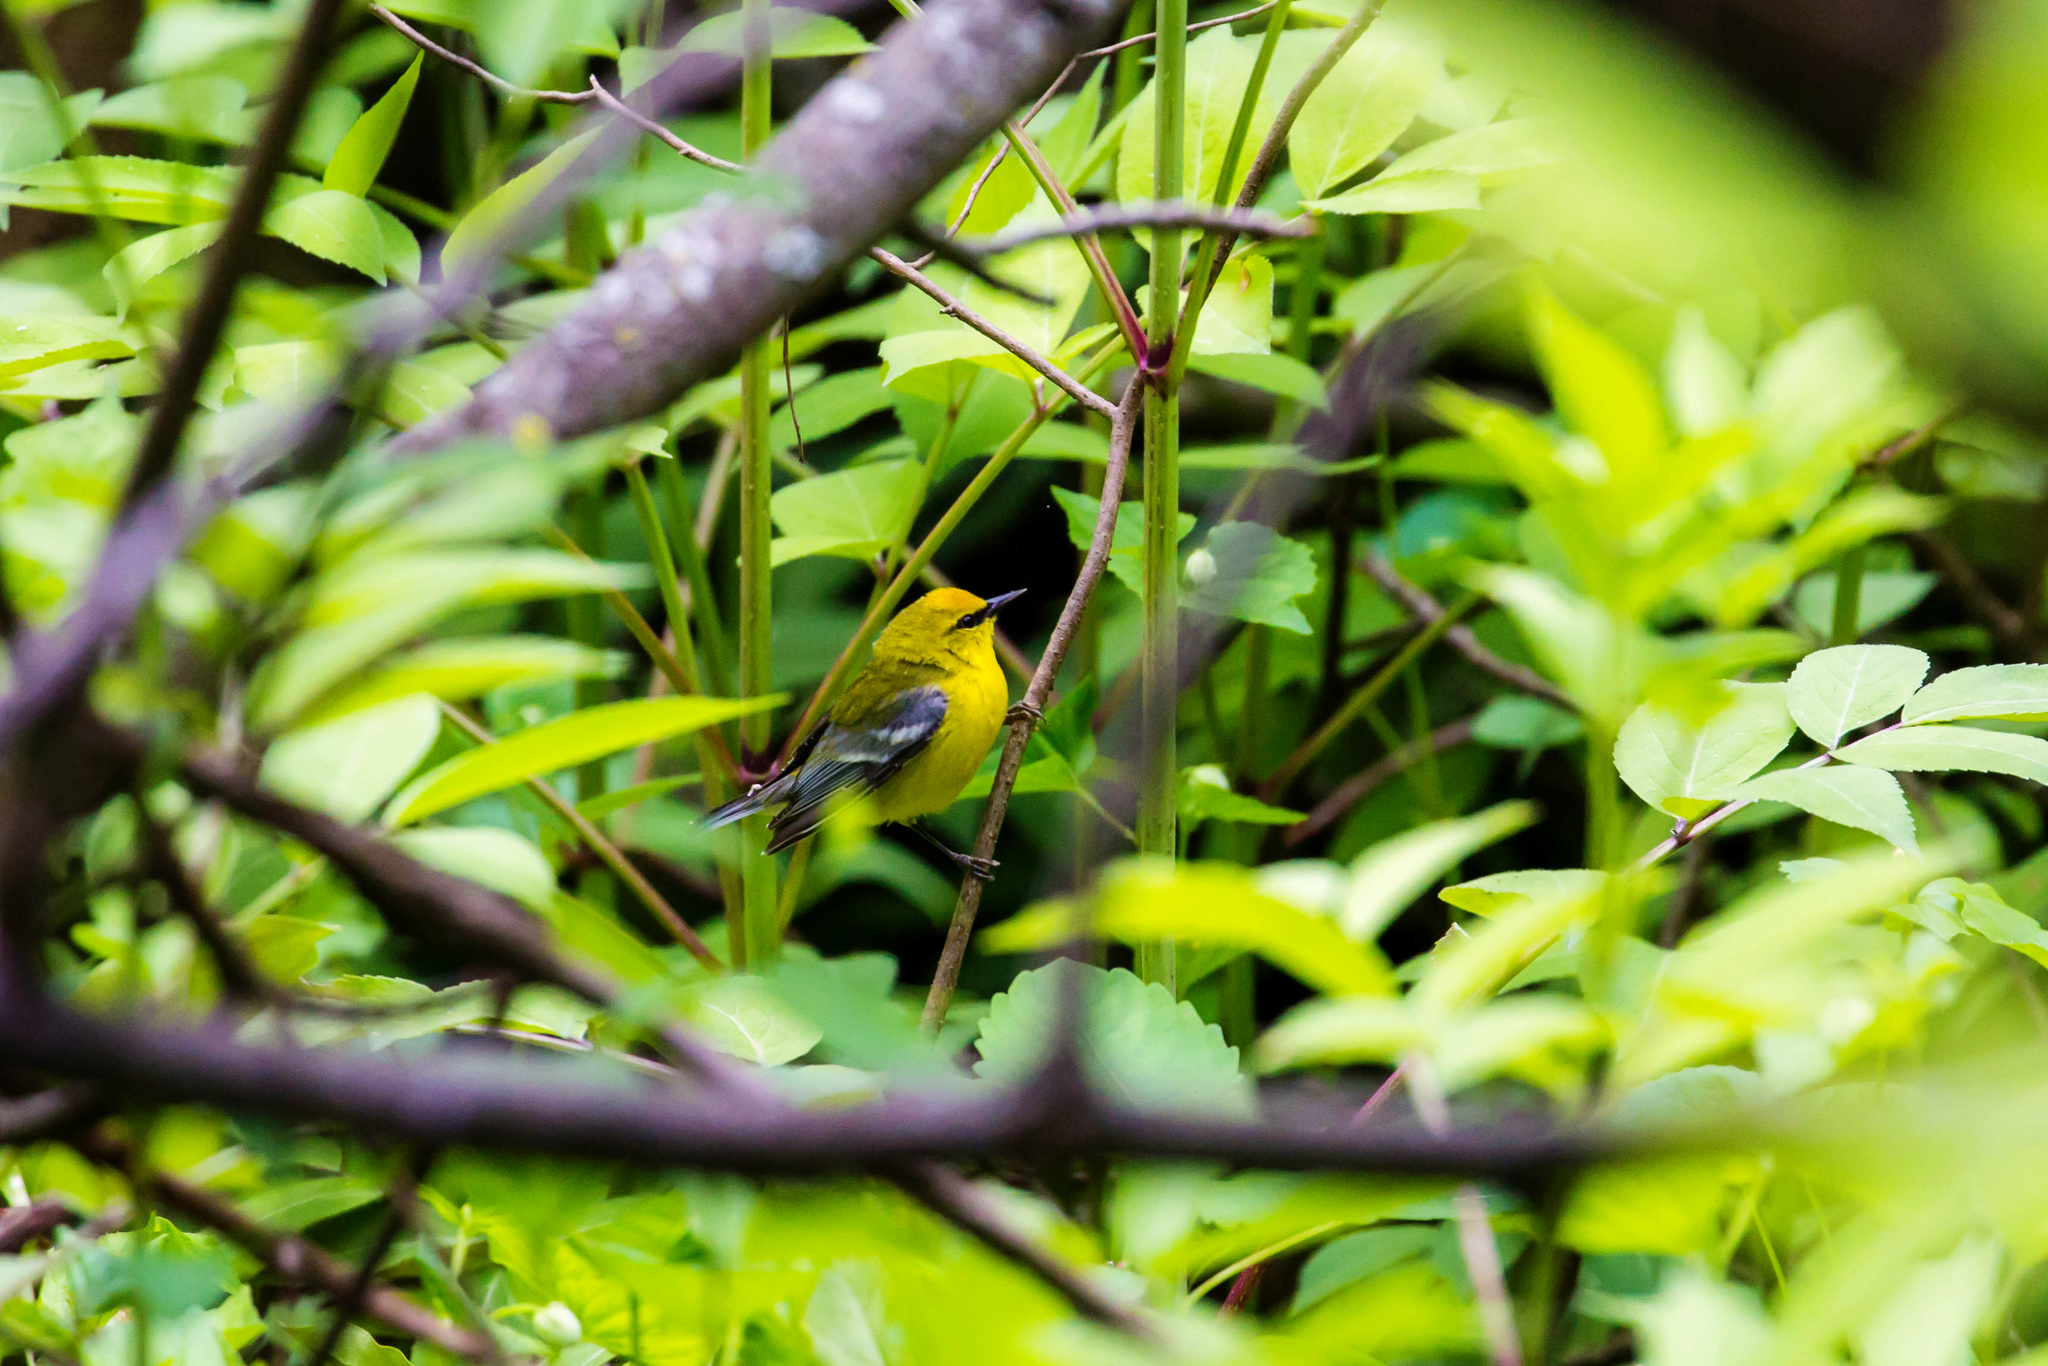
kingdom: Animalia
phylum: Chordata
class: Aves
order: Passeriformes
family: Parulidae
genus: Vermivora
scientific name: Vermivora cyanoptera
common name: Blue-winged warbler
